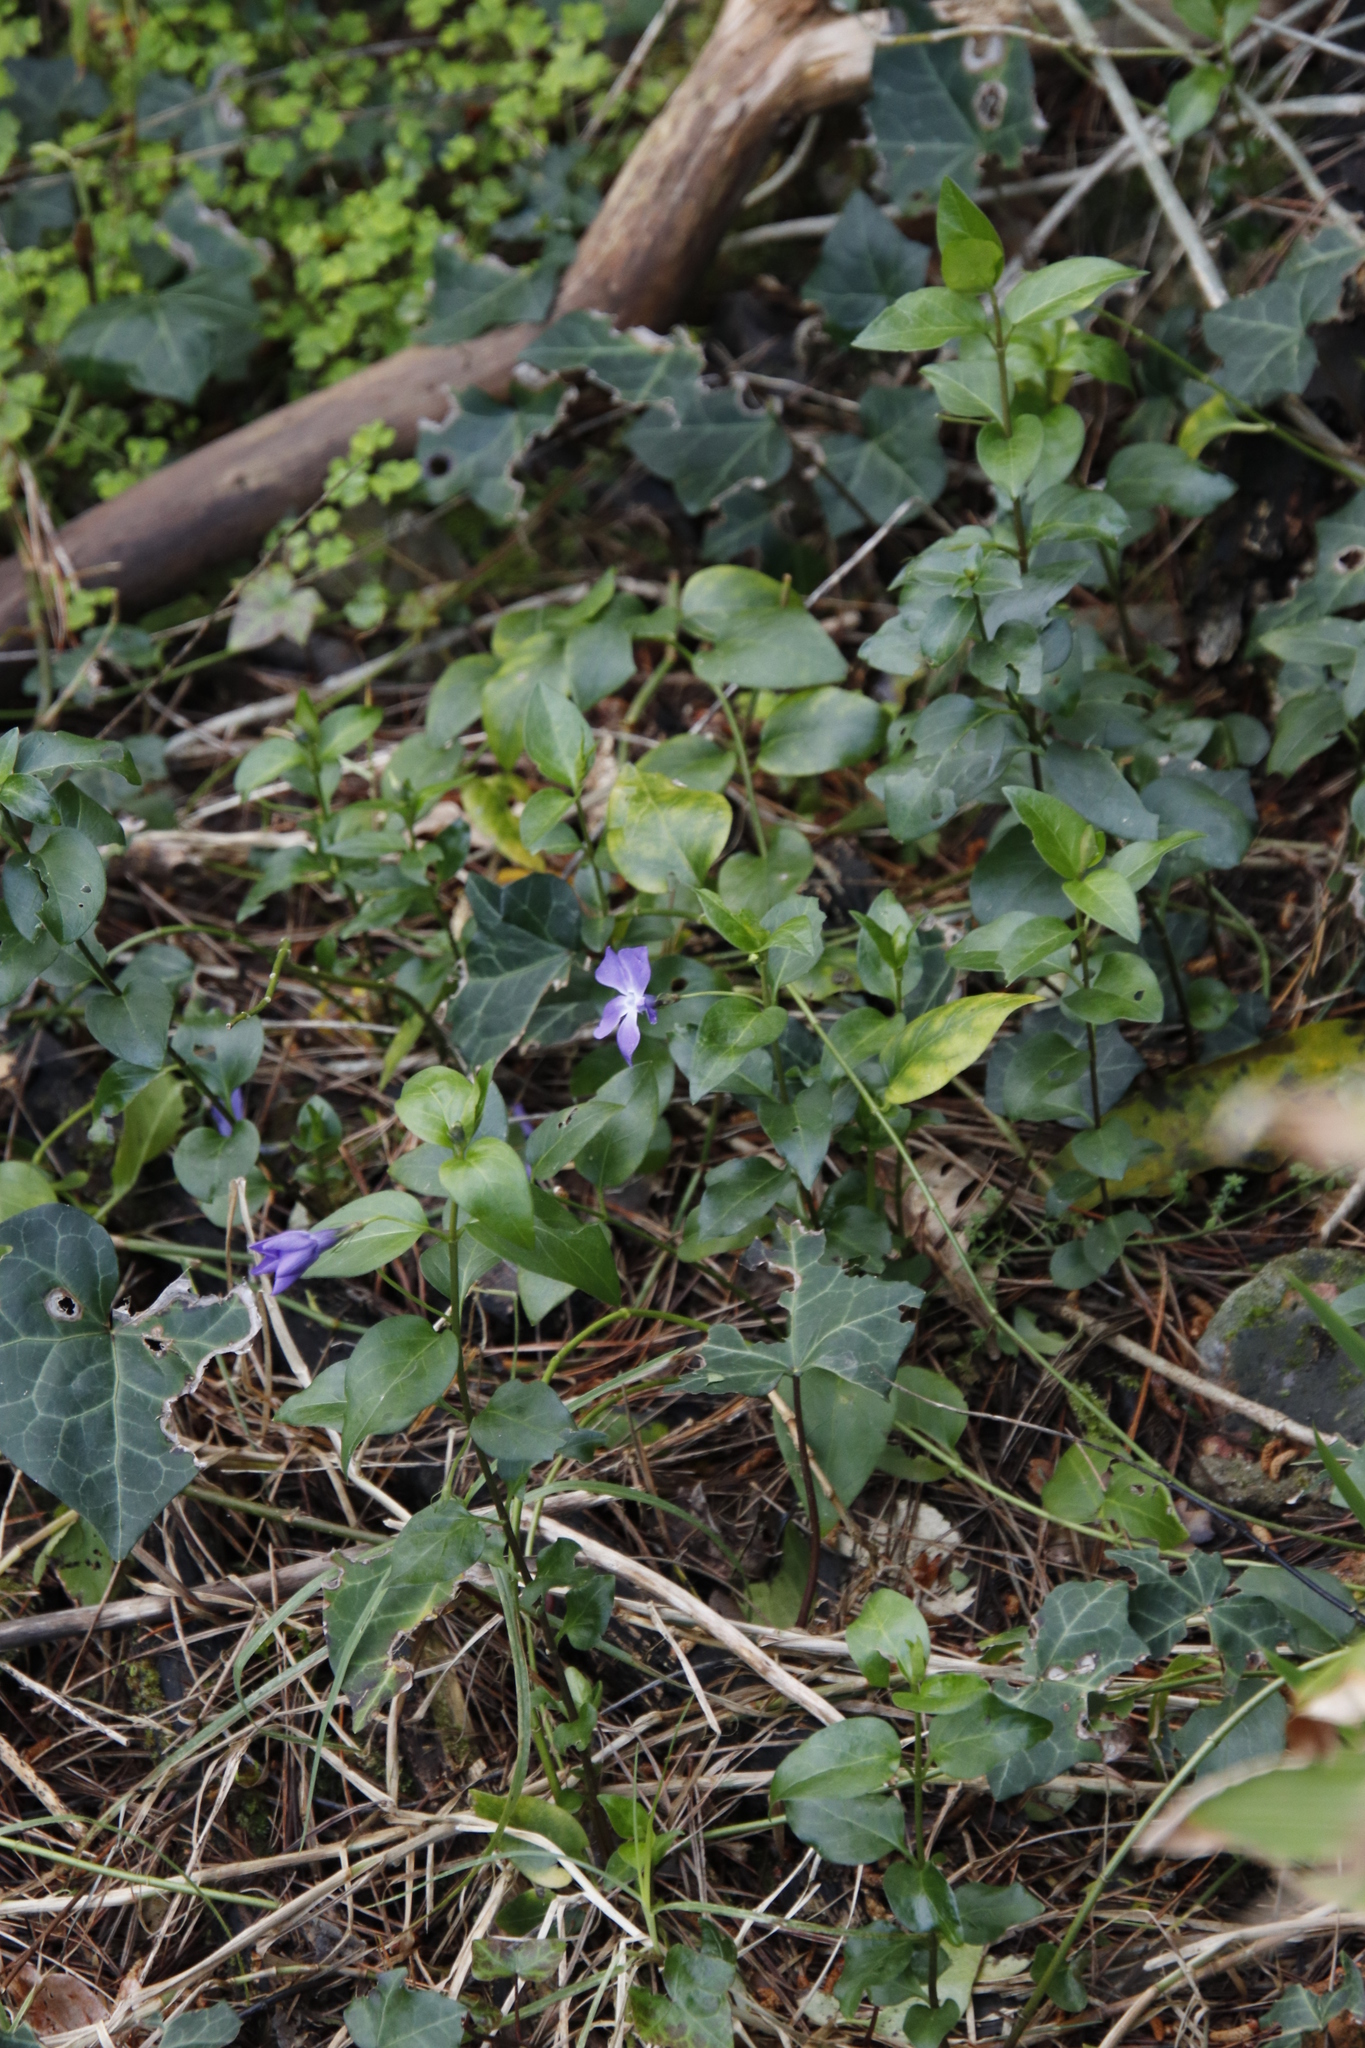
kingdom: Plantae
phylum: Tracheophyta
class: Magnoliopsida
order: Gentianales
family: Apocynaceae
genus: Vinca
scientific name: Vinca major
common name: Greater periwinkle
